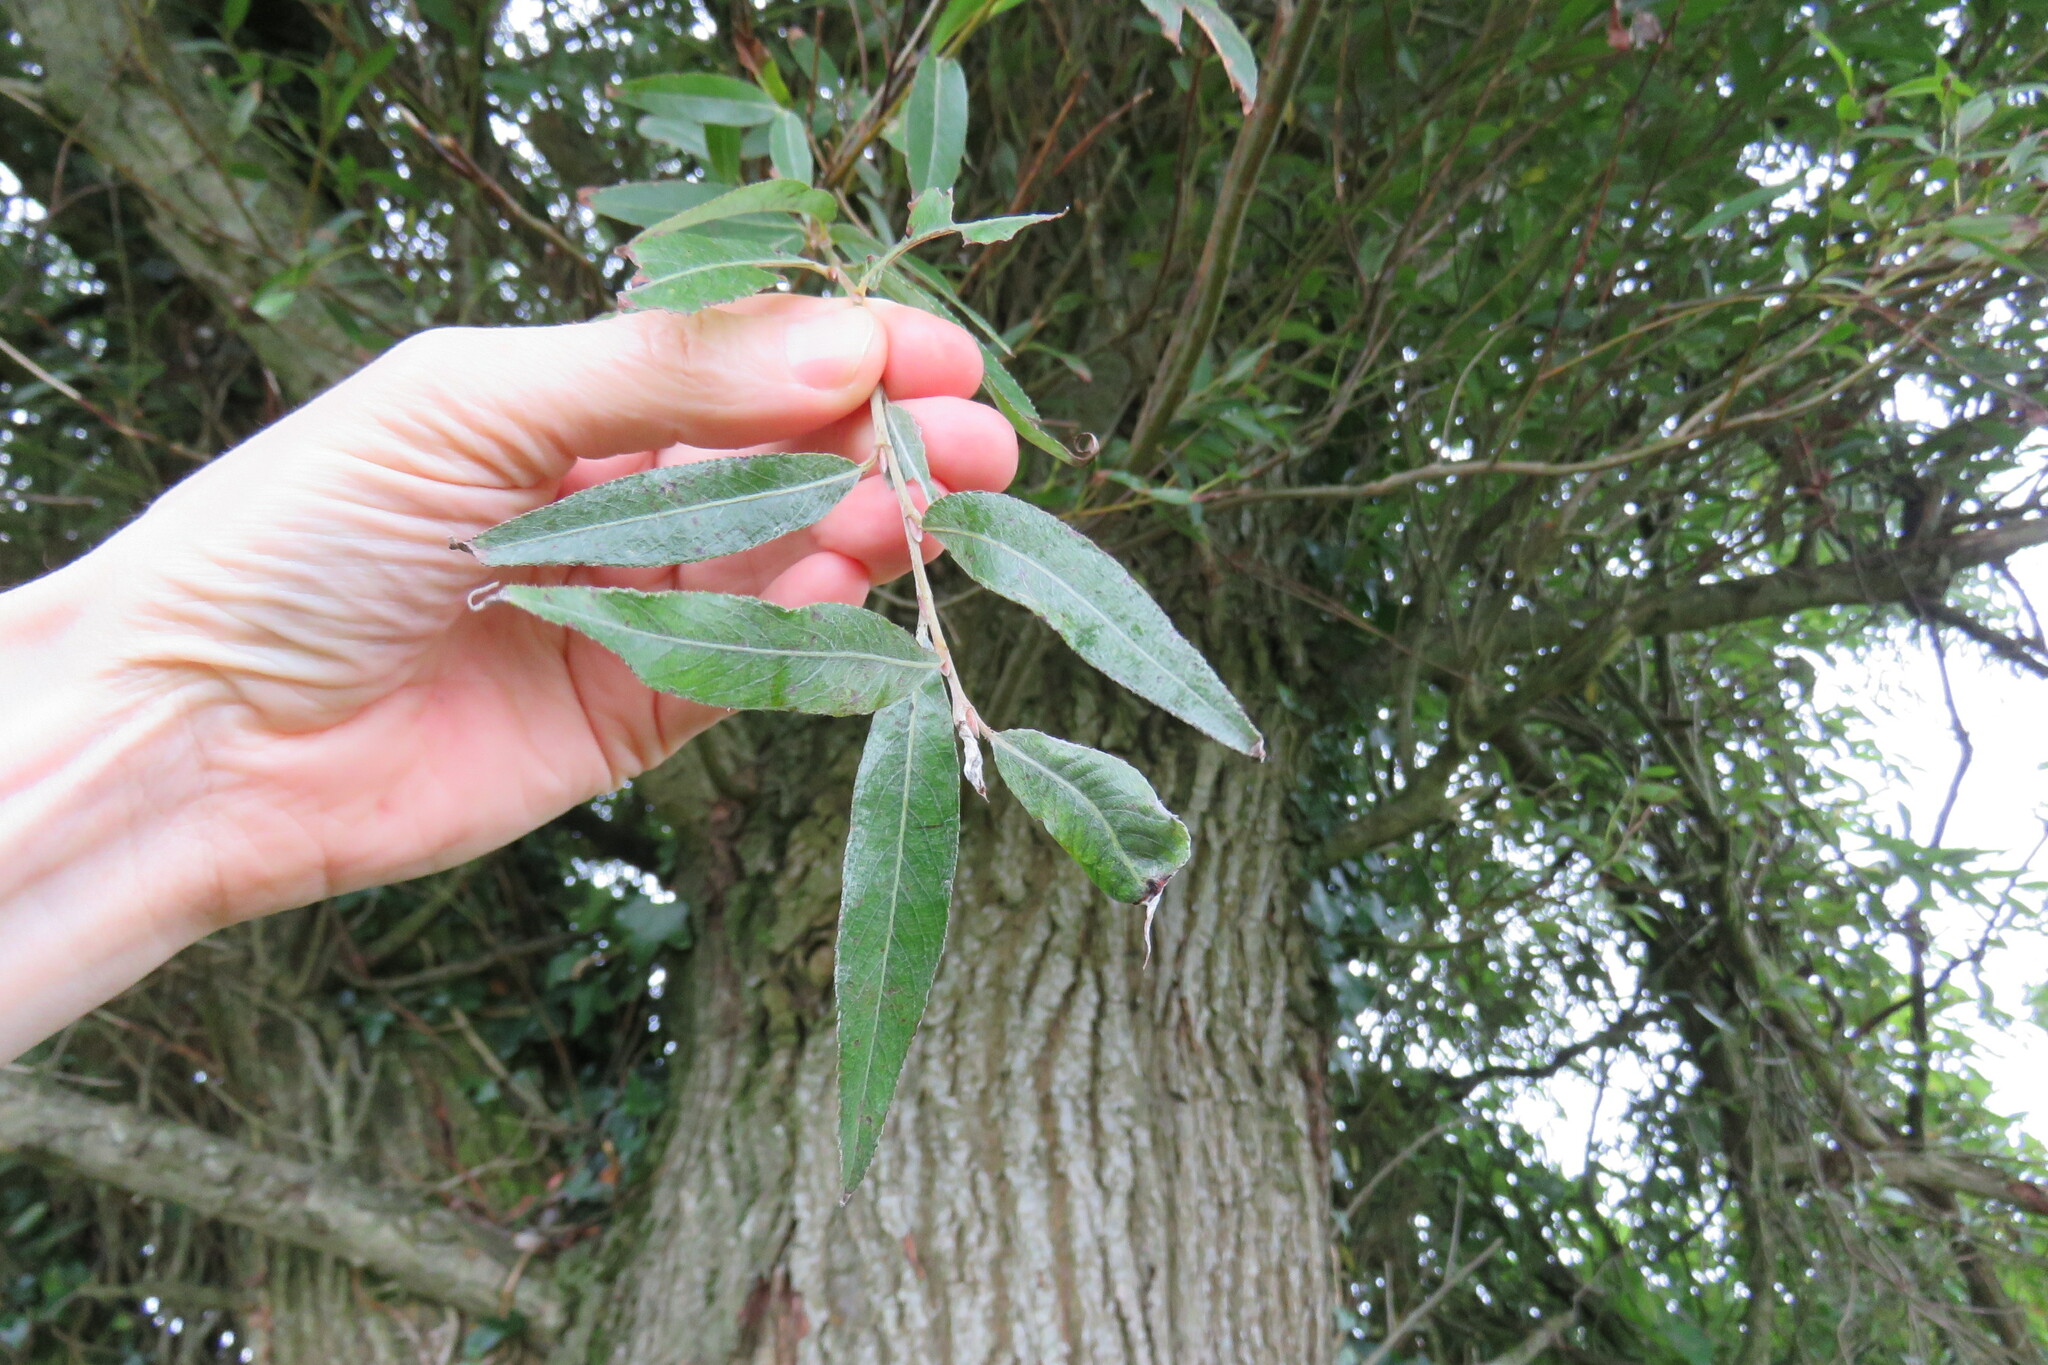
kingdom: Plantae
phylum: Tracheophyta
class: Magnoliopsida
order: Malpighiales
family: Salicaceae
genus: Salix
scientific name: Salix alba
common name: White willow
